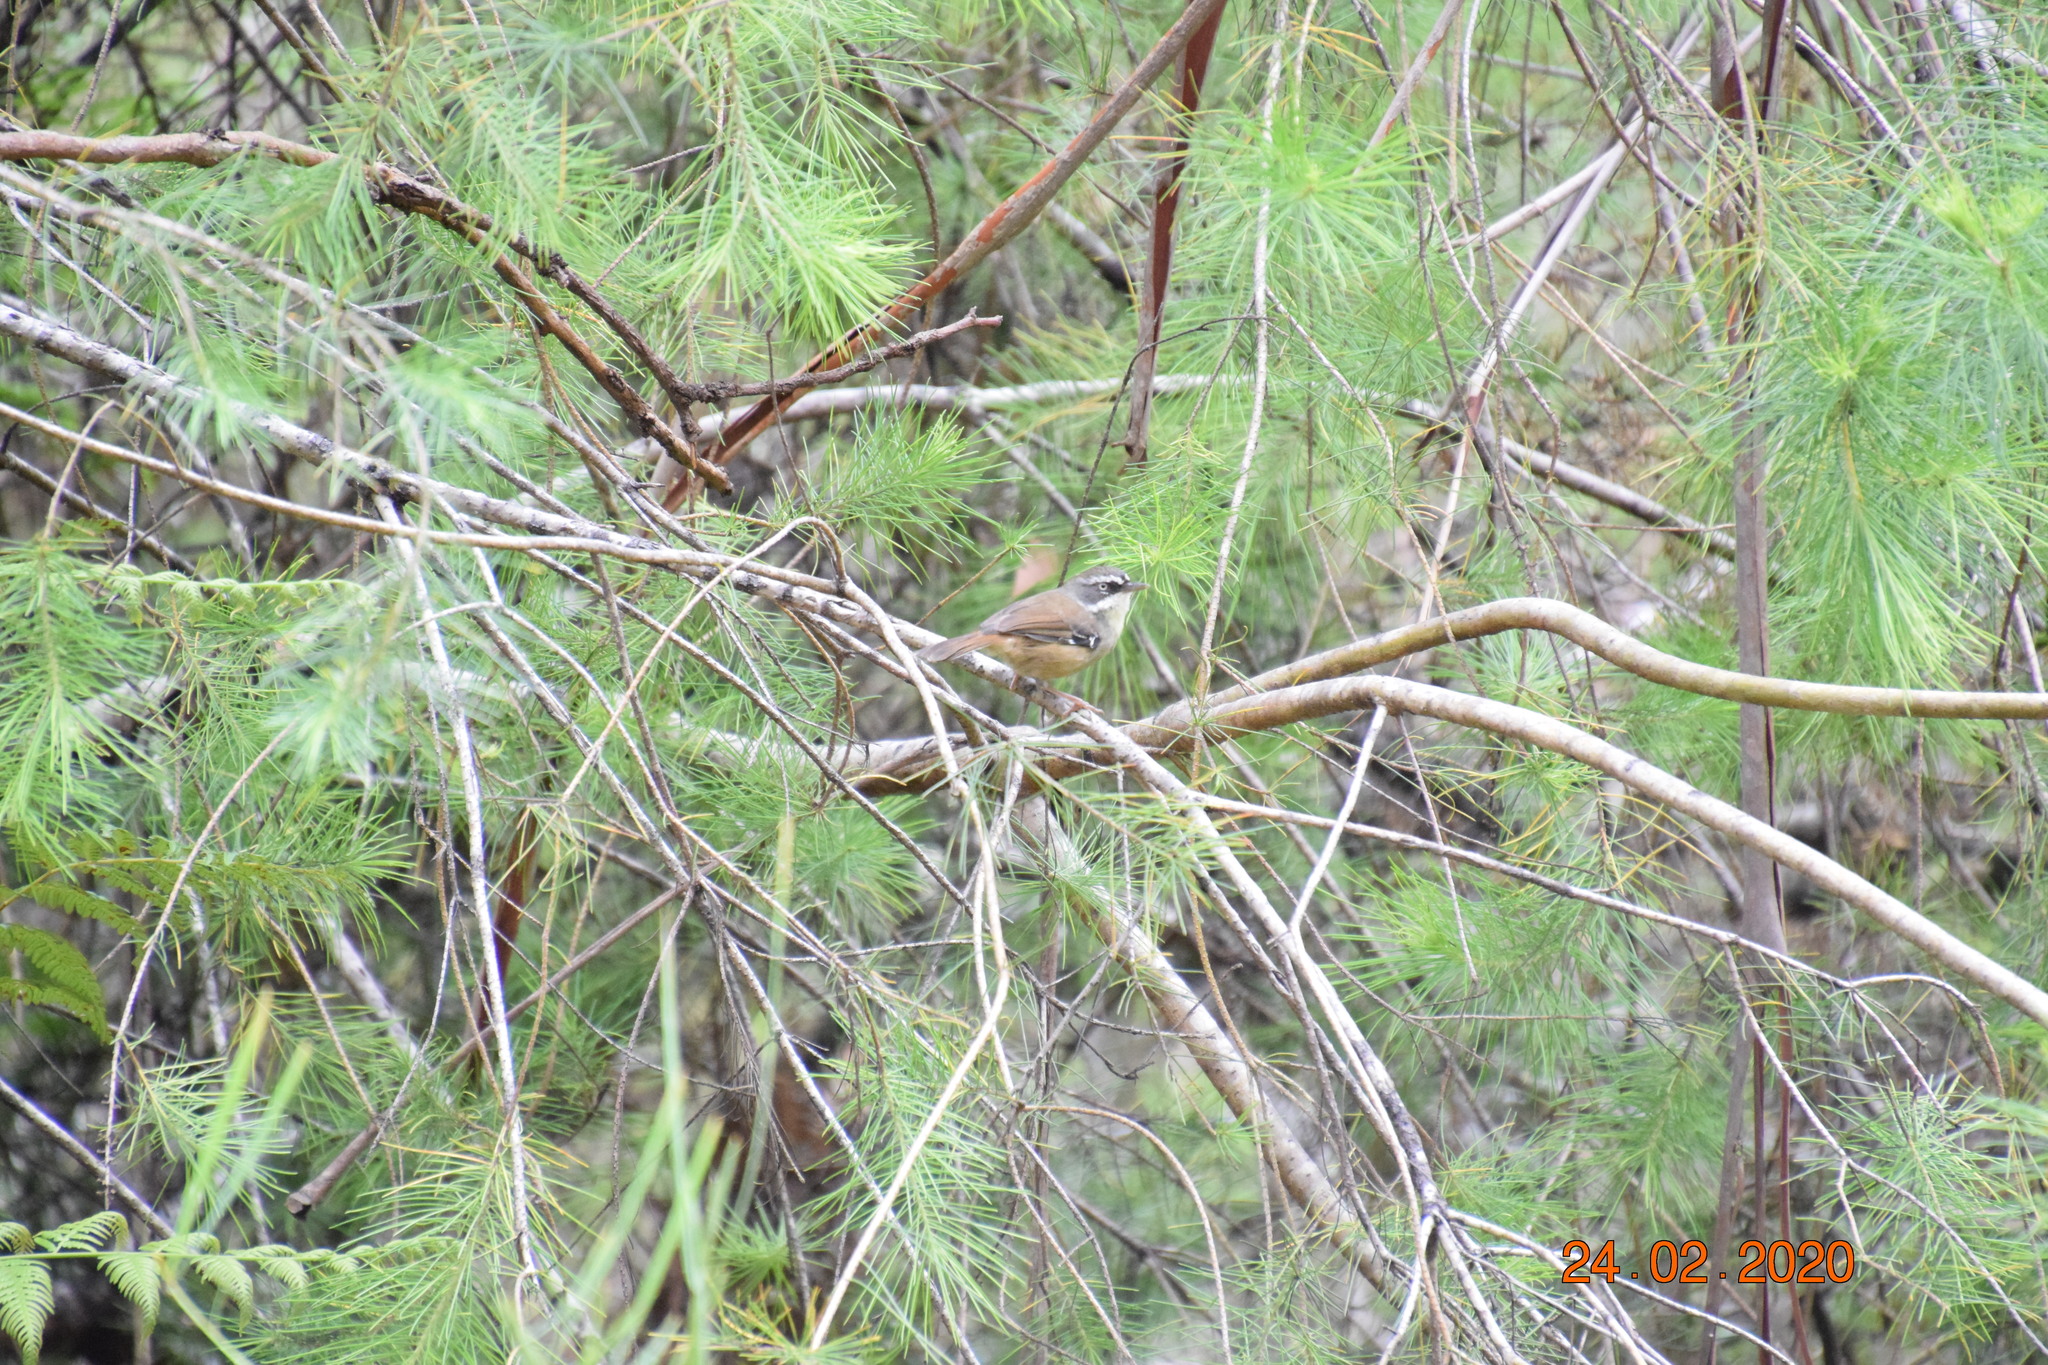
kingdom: Animalia
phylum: Chordata
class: Aves
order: Passeriformes
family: Acanthizidae
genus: Sericornis
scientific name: Sericornis frontalis
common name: White-browed scrubwren
